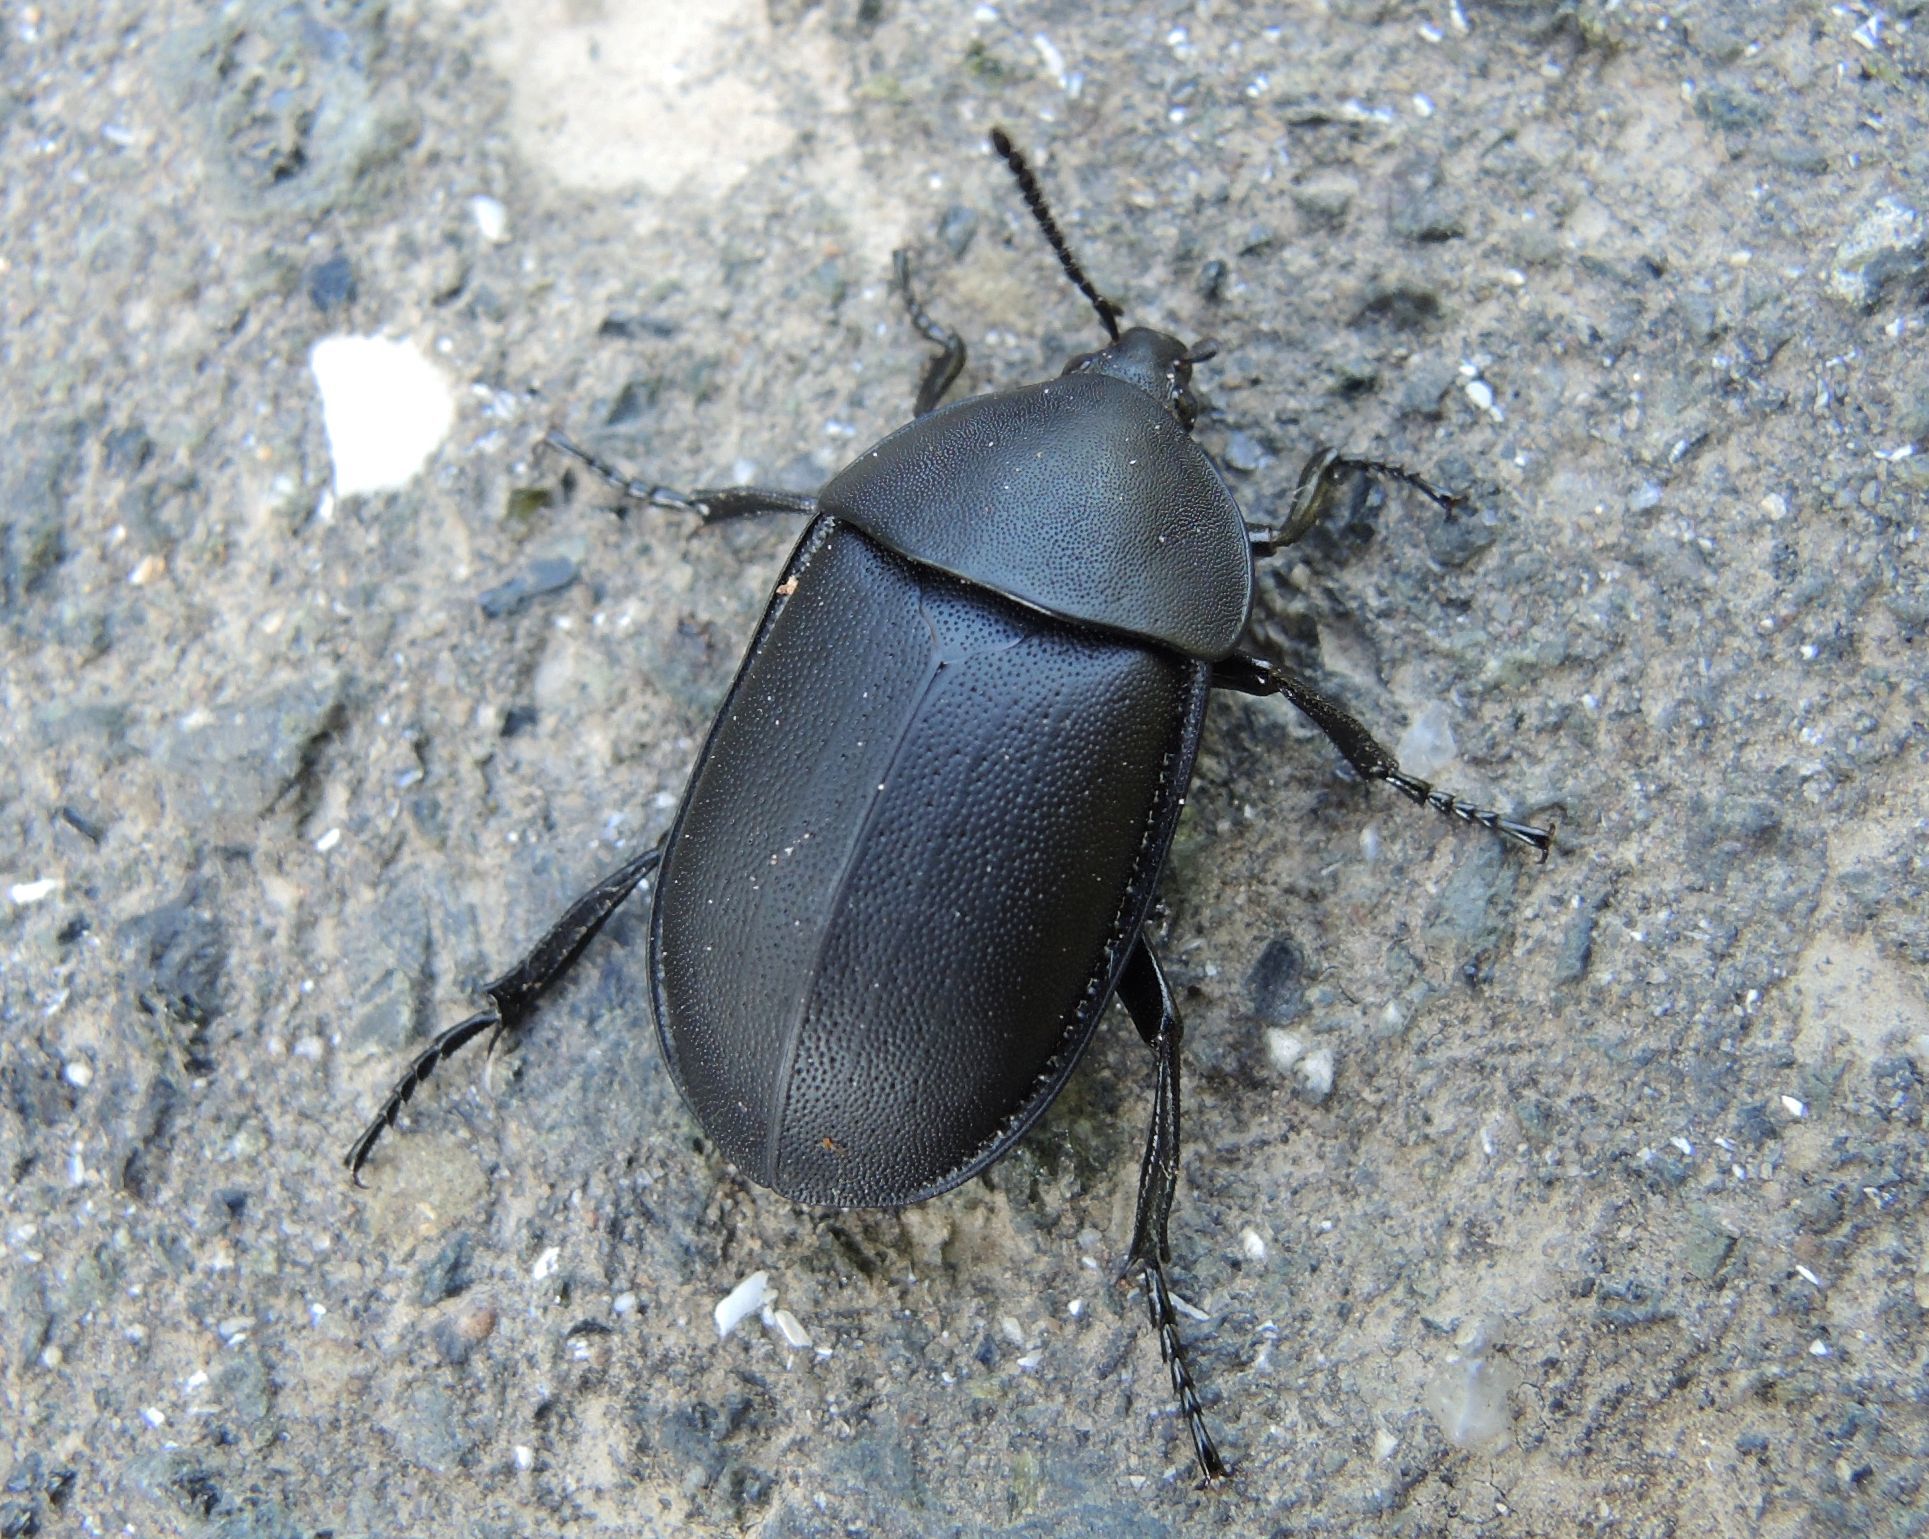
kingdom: Animalia
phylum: Arthropoda
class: Insecta
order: Coleoptera
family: Staphylinidae
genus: Silpha
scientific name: Silpha laevigata
